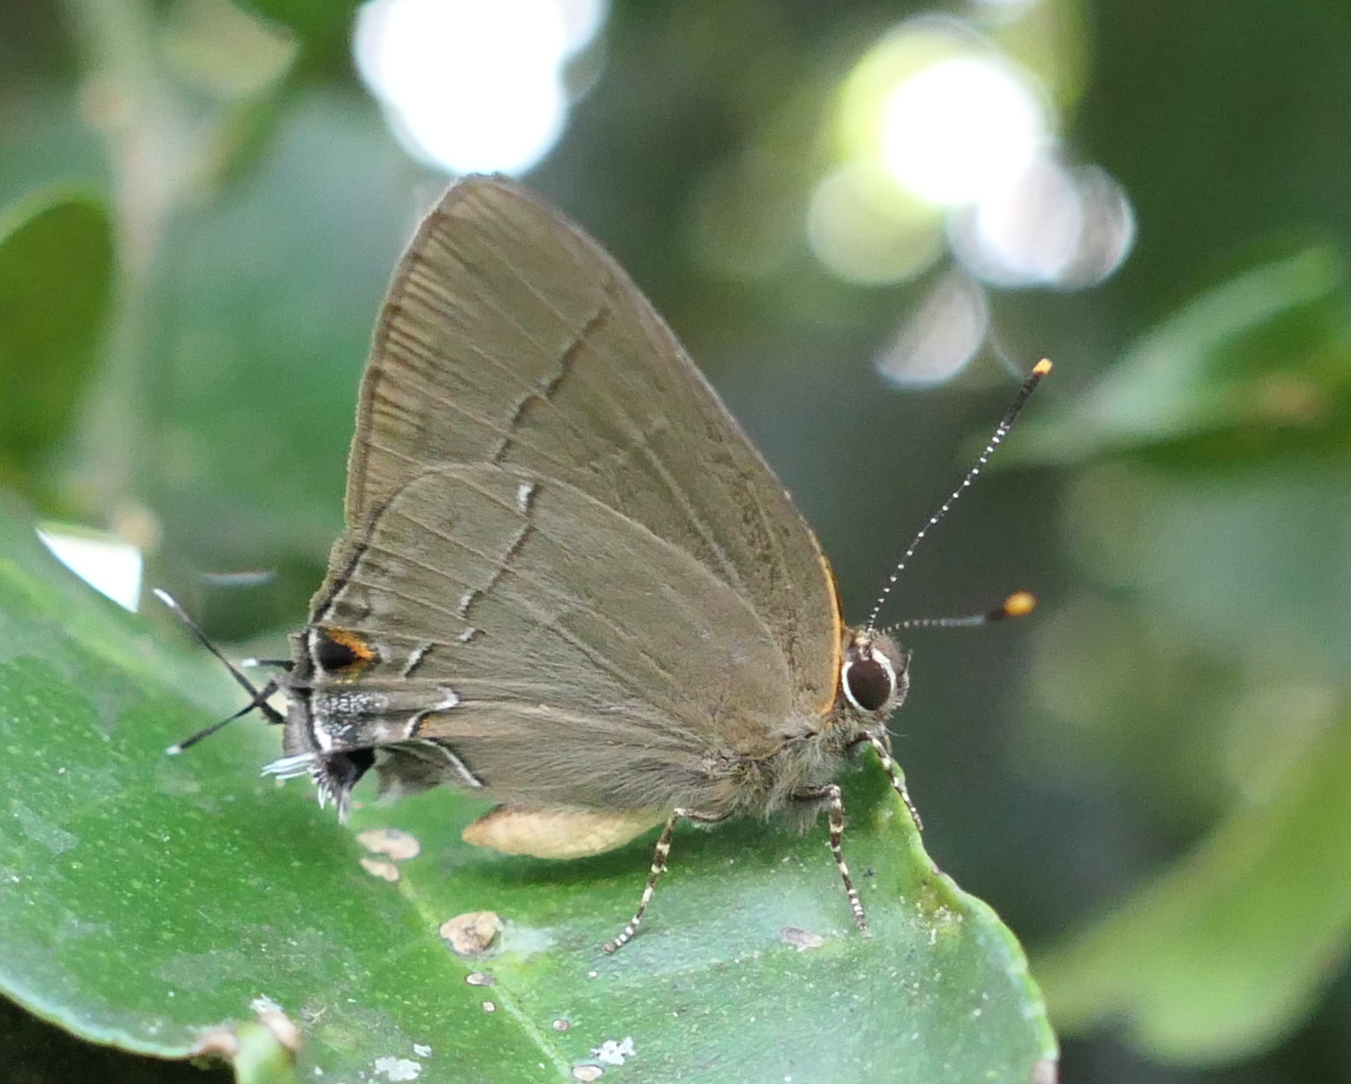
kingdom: Animalia
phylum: Arthropoda
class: Insecta
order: Lepidoptera
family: Lycaenidae
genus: Ziegleria
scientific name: Ziegleria hesperitis
